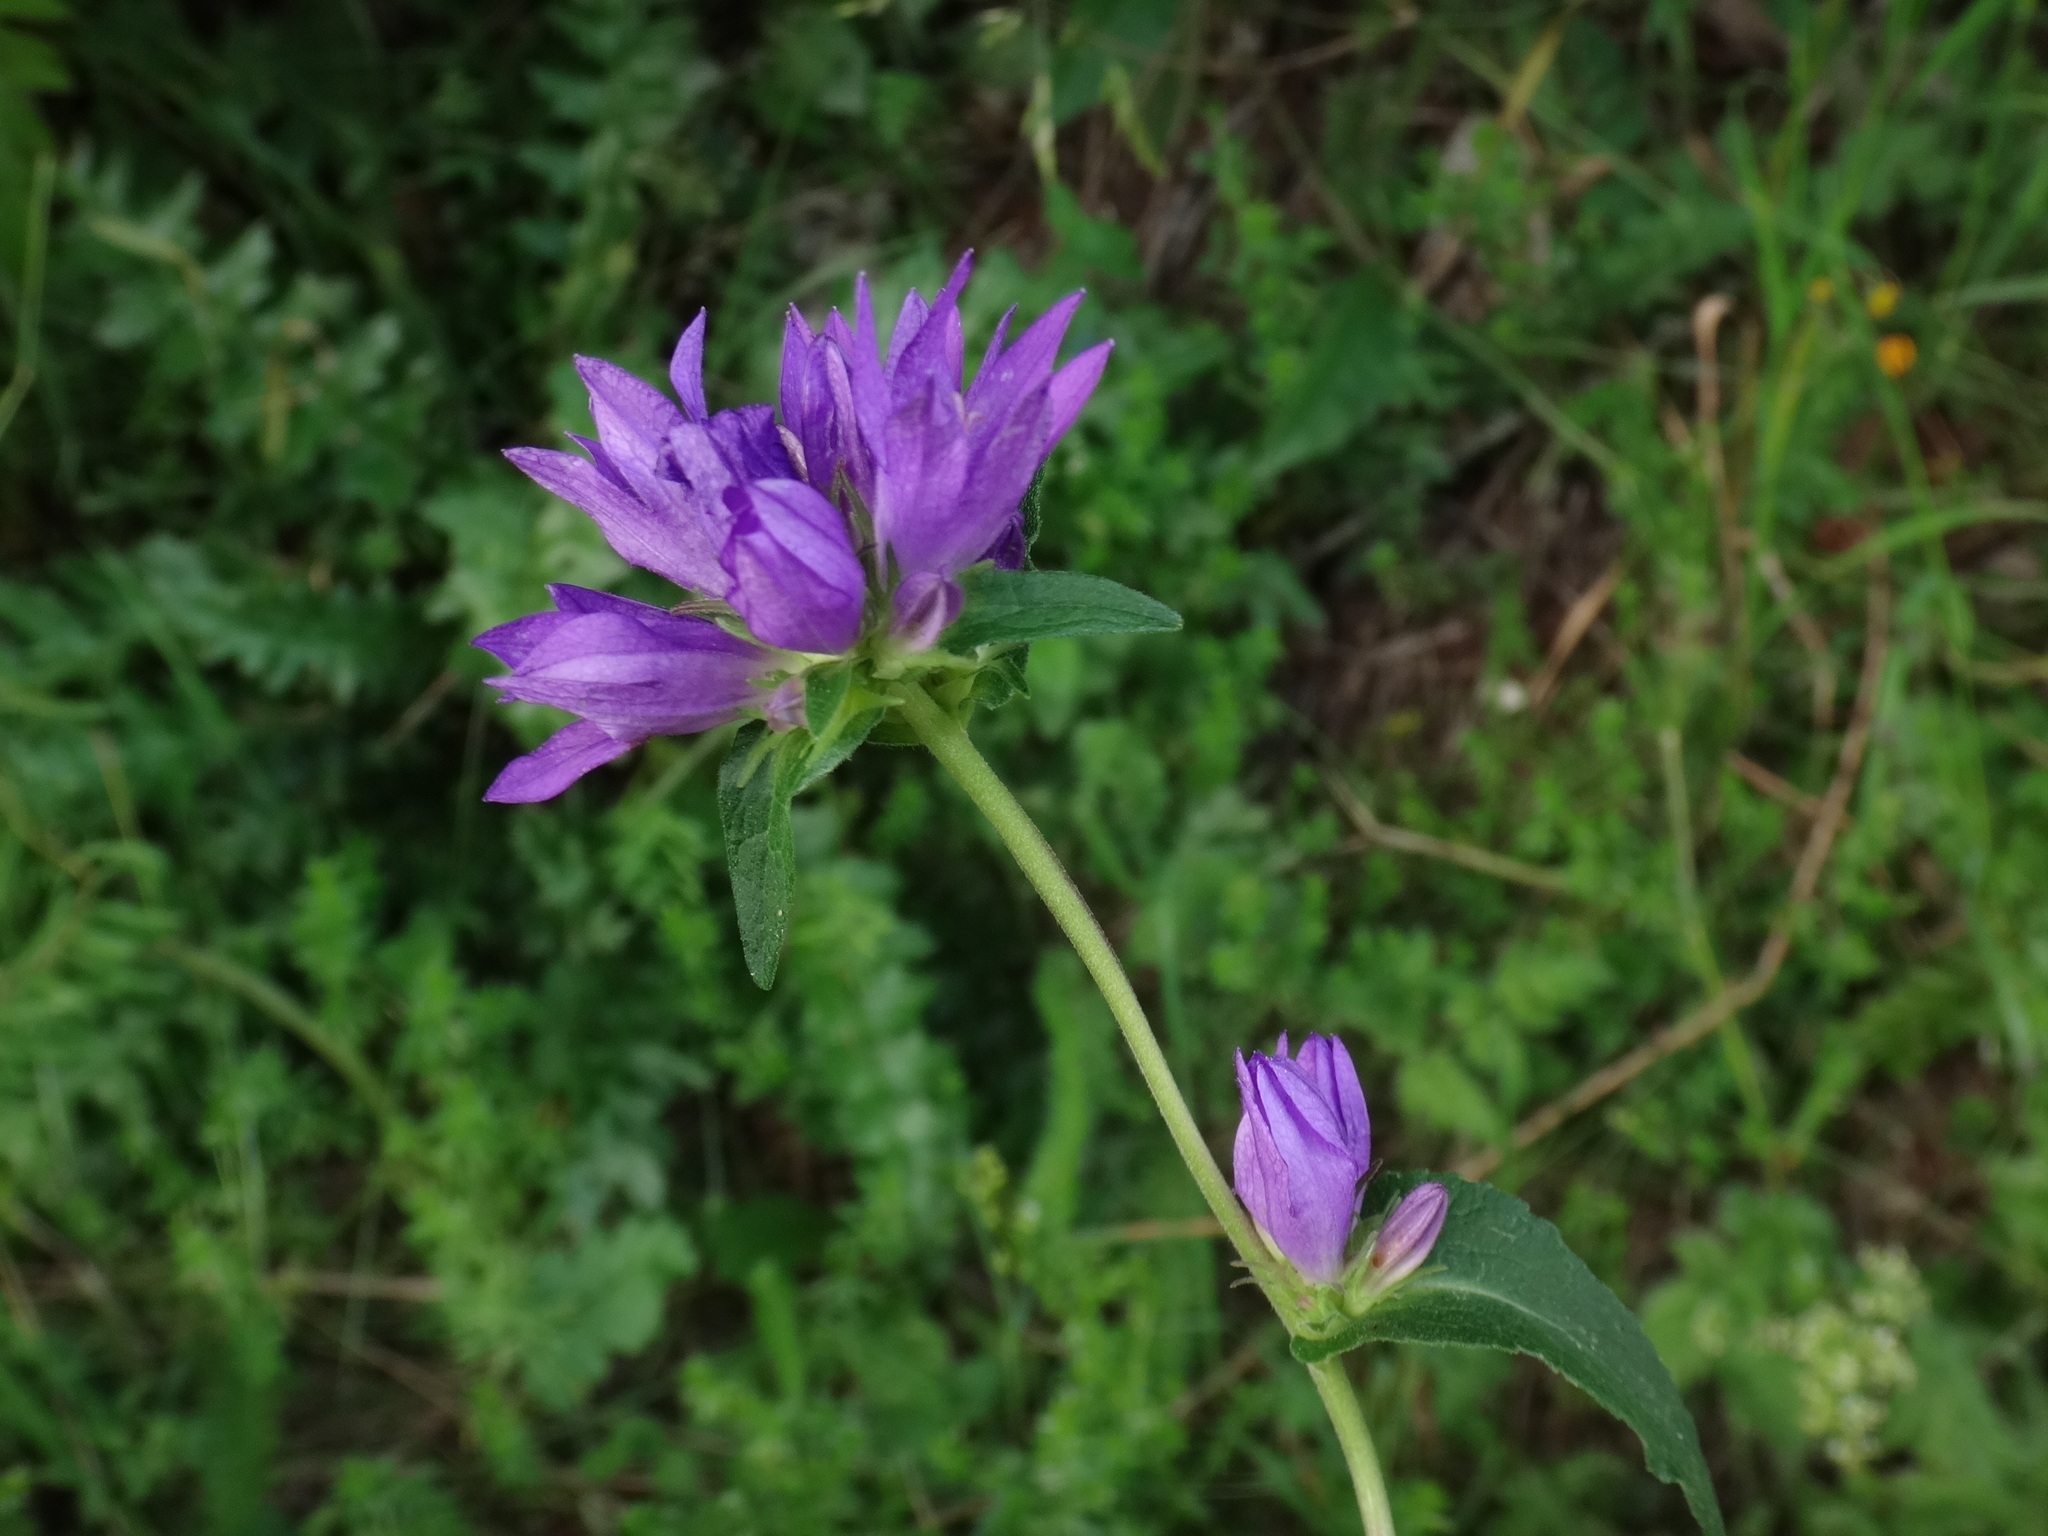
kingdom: Plantae
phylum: Tracheophyta
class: Magnoliopsida
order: Asterales
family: Campanulaceae
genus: Campanula
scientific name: Campanula glomerata
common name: Clustered bellflower
